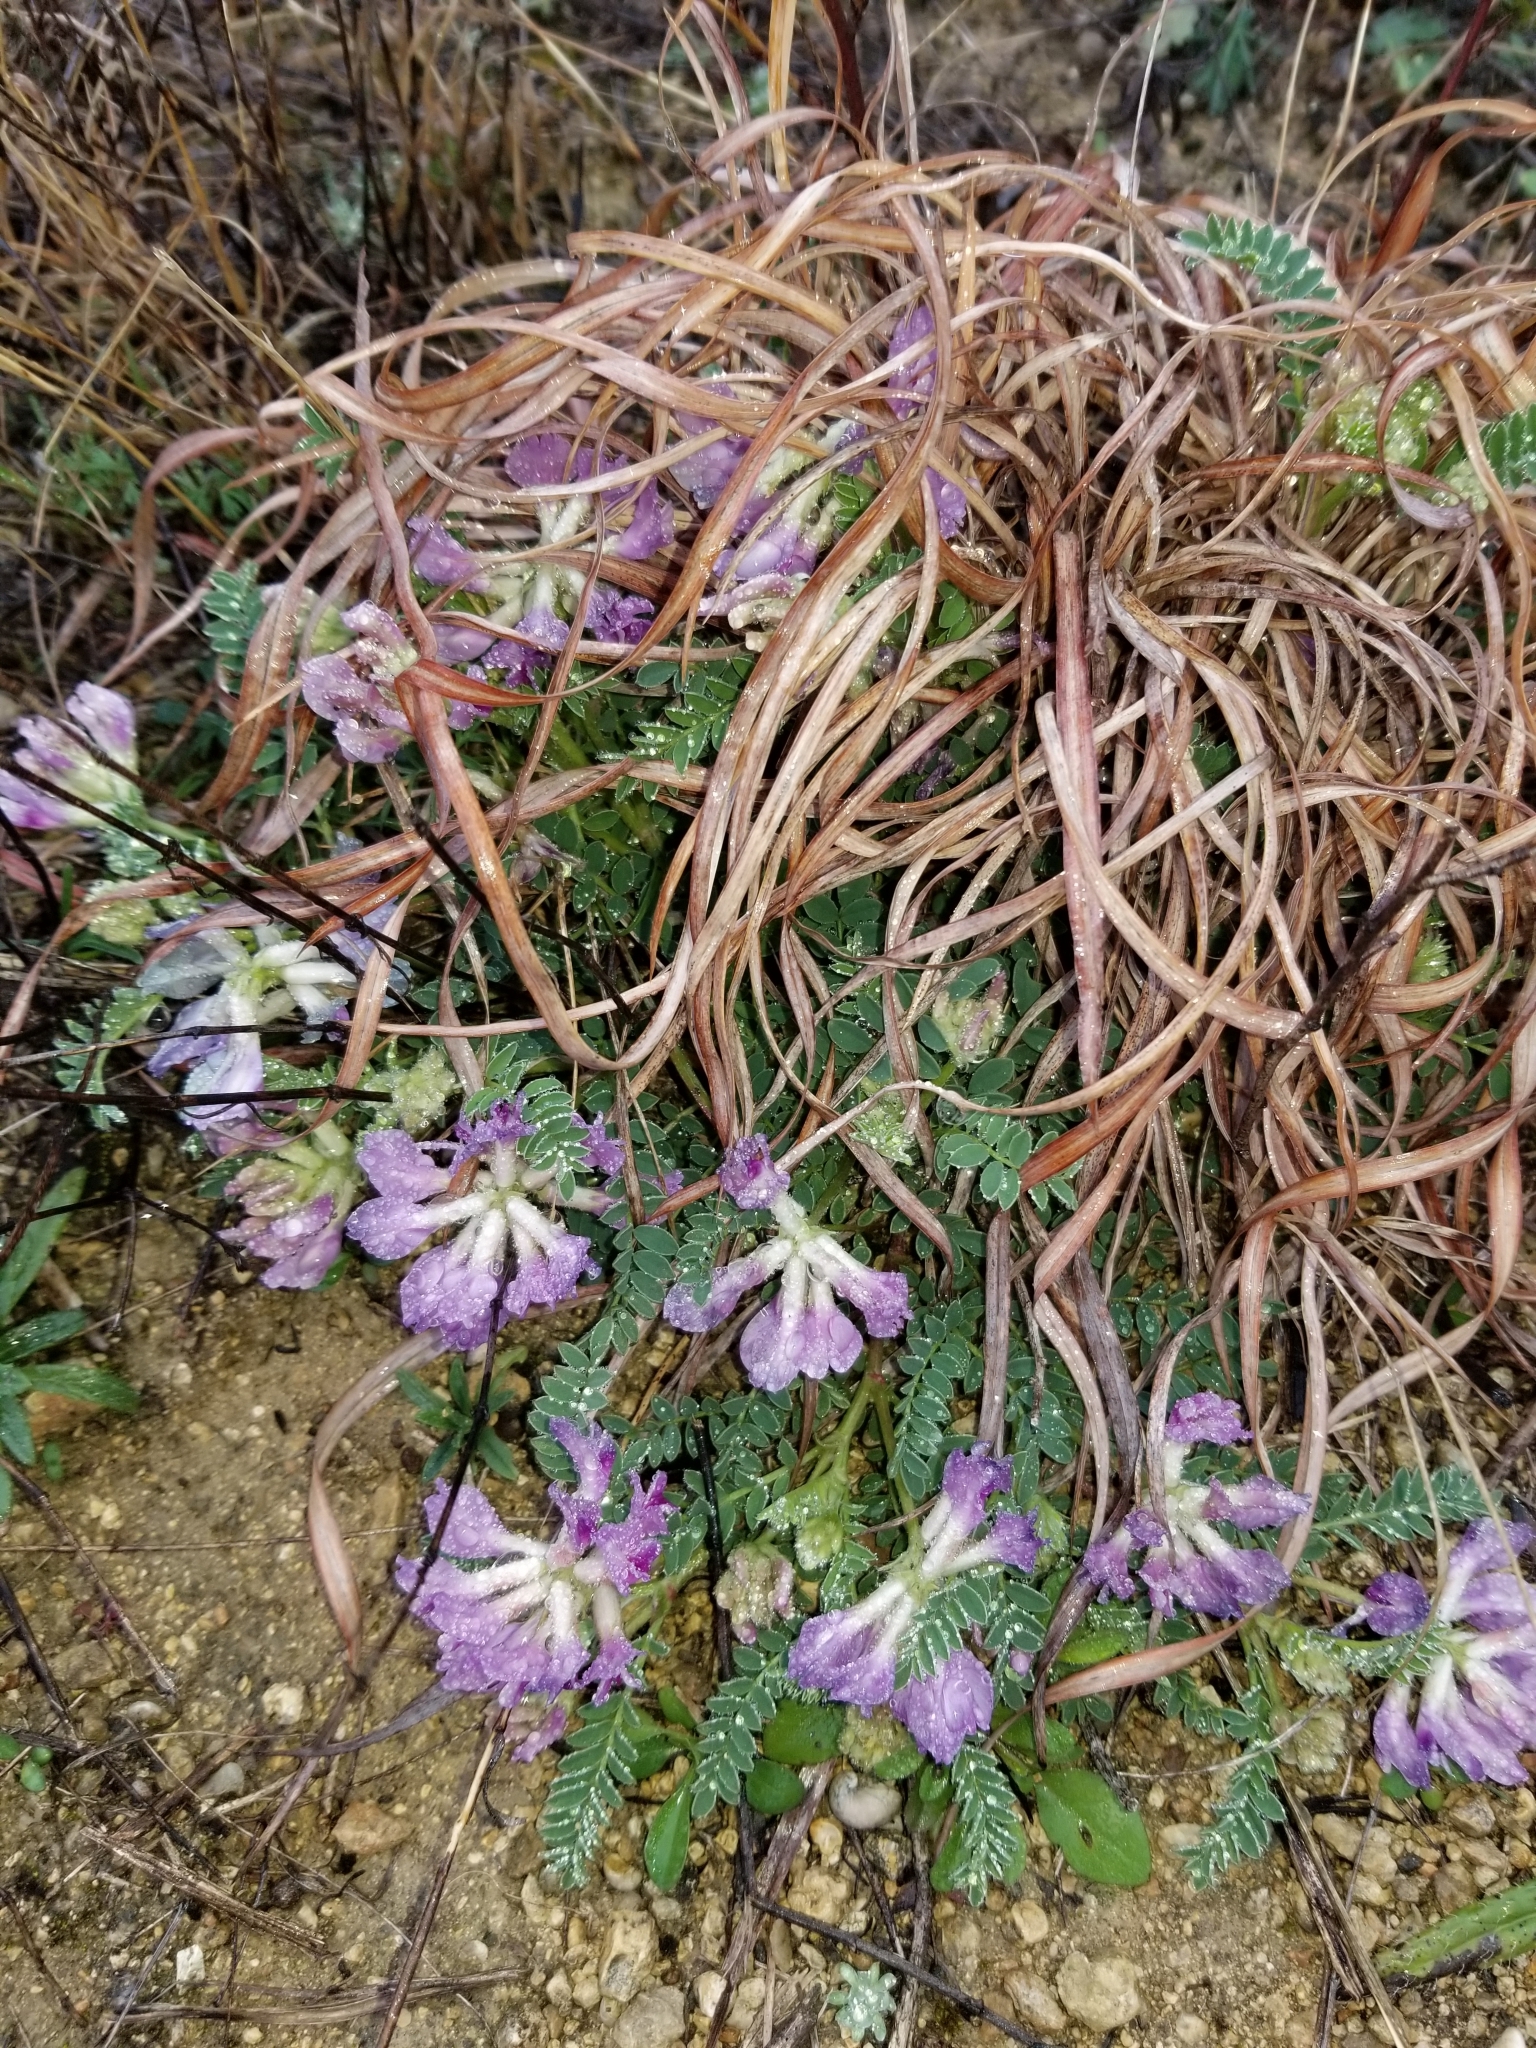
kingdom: Plantae
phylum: Tracheophyta
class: Magnoliopsida
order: Fabales
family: Fabaceae
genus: Astragalus
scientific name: Astragalus crassicarpus
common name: Ground-plum milk-vetch
